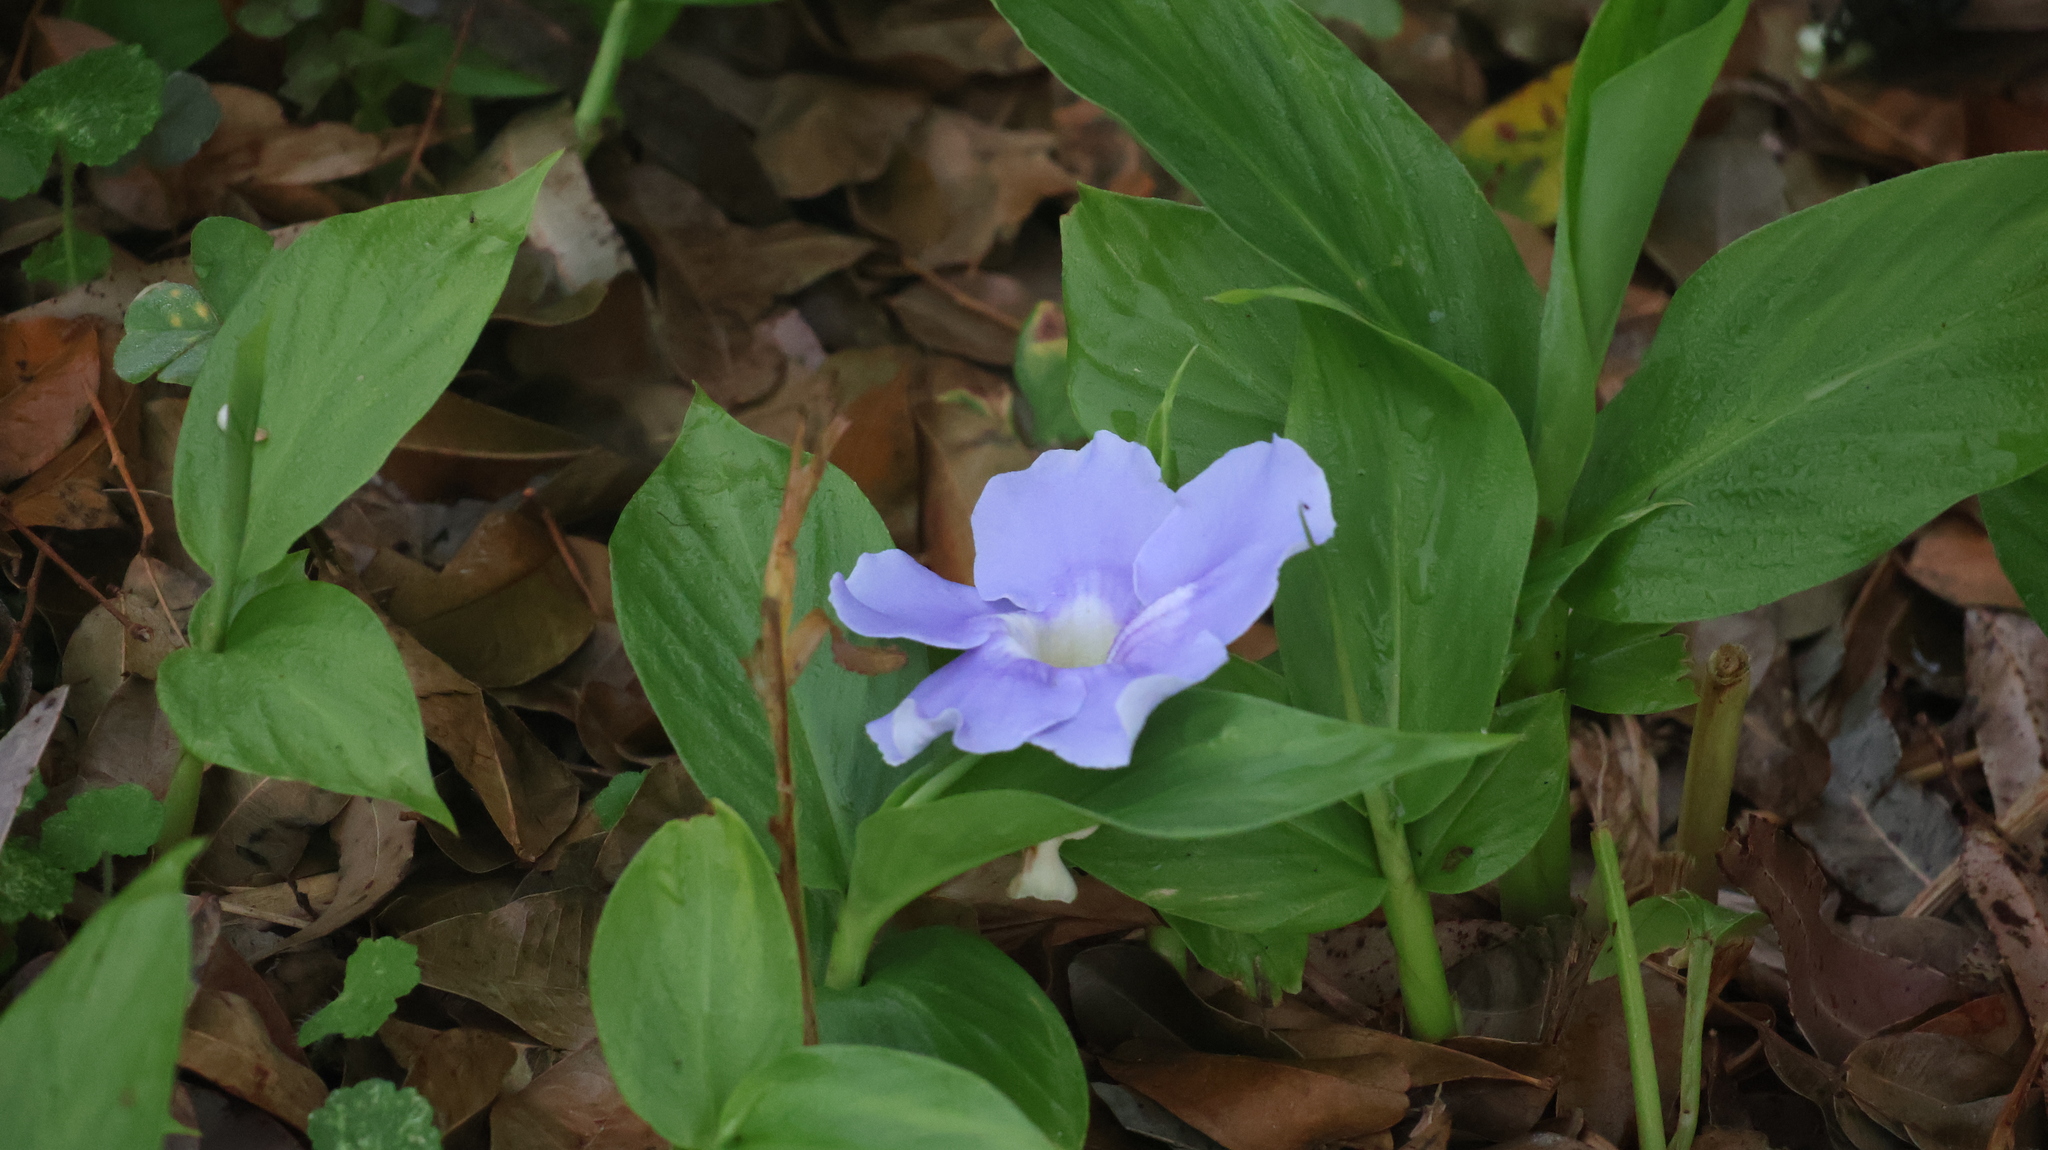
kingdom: Plantae
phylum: Tracheophyta
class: Magnoliopsida
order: Lamiales
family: Acanthaceae
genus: Thunbergia
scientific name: Thunbergia grandiflora
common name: Bengal trumpet
